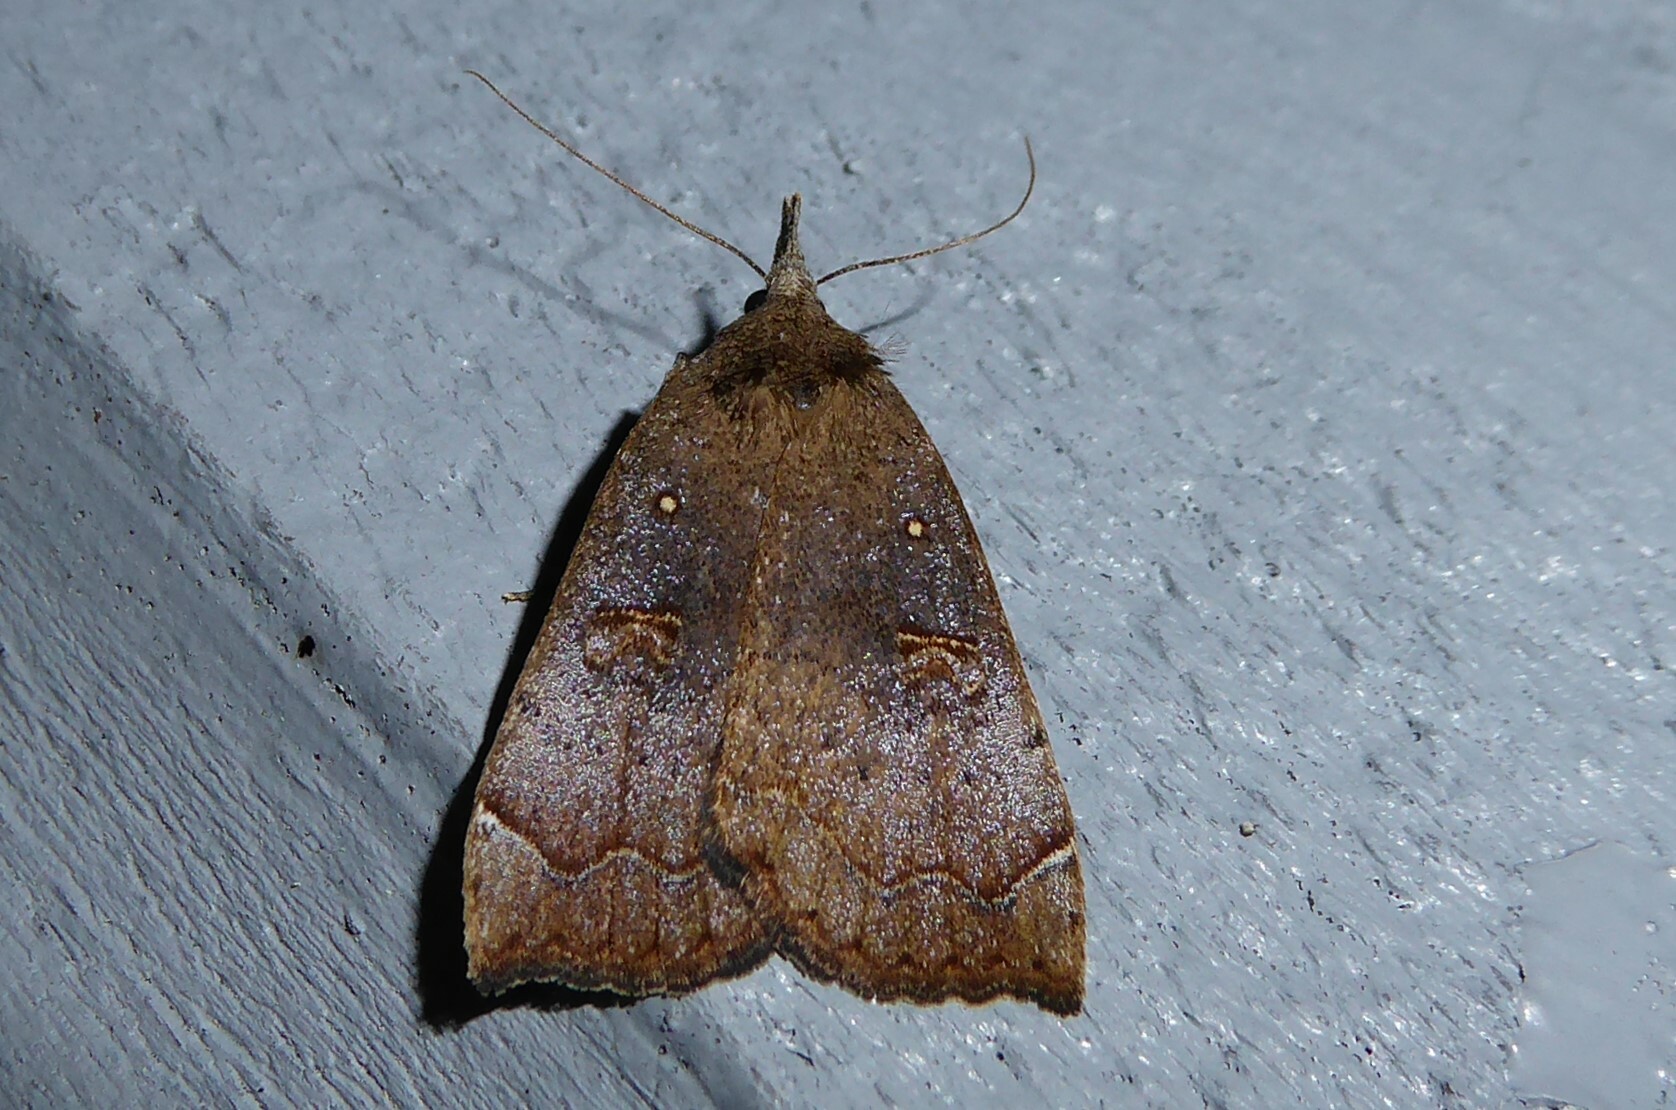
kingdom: Animalia
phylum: Arthropoda
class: Insecta
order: Lepidoptera
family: Erebidae
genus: Rhapsa
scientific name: Rhapsa scotosialis
